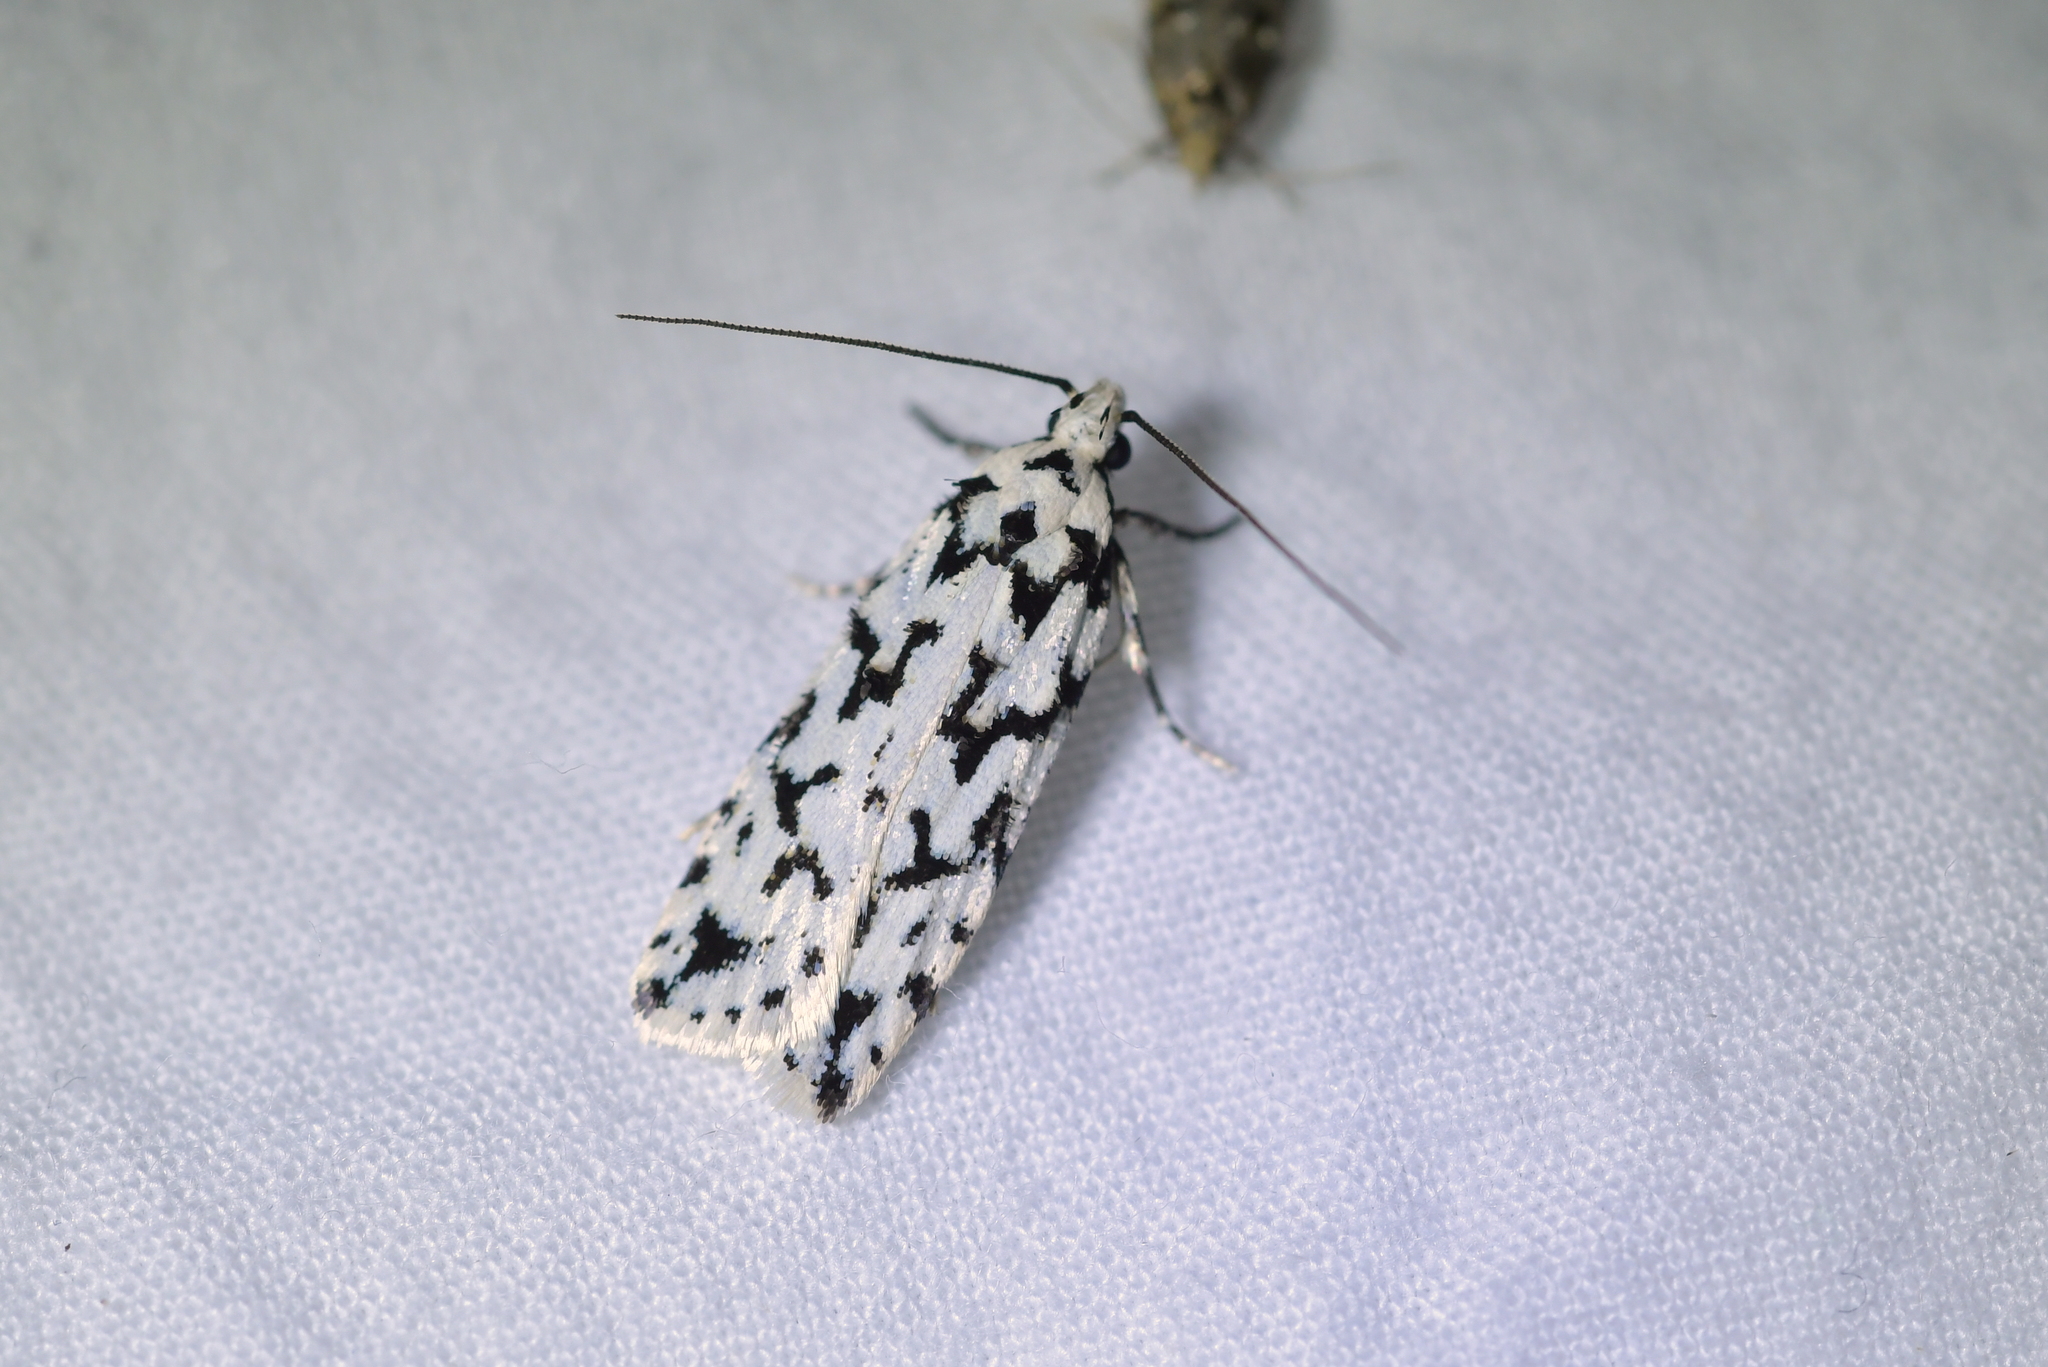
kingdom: Animalia
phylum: Arthropoda
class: Insecta
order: Lepidoptera
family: Oecophoridae
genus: Izatha
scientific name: Izatha katadiktya
